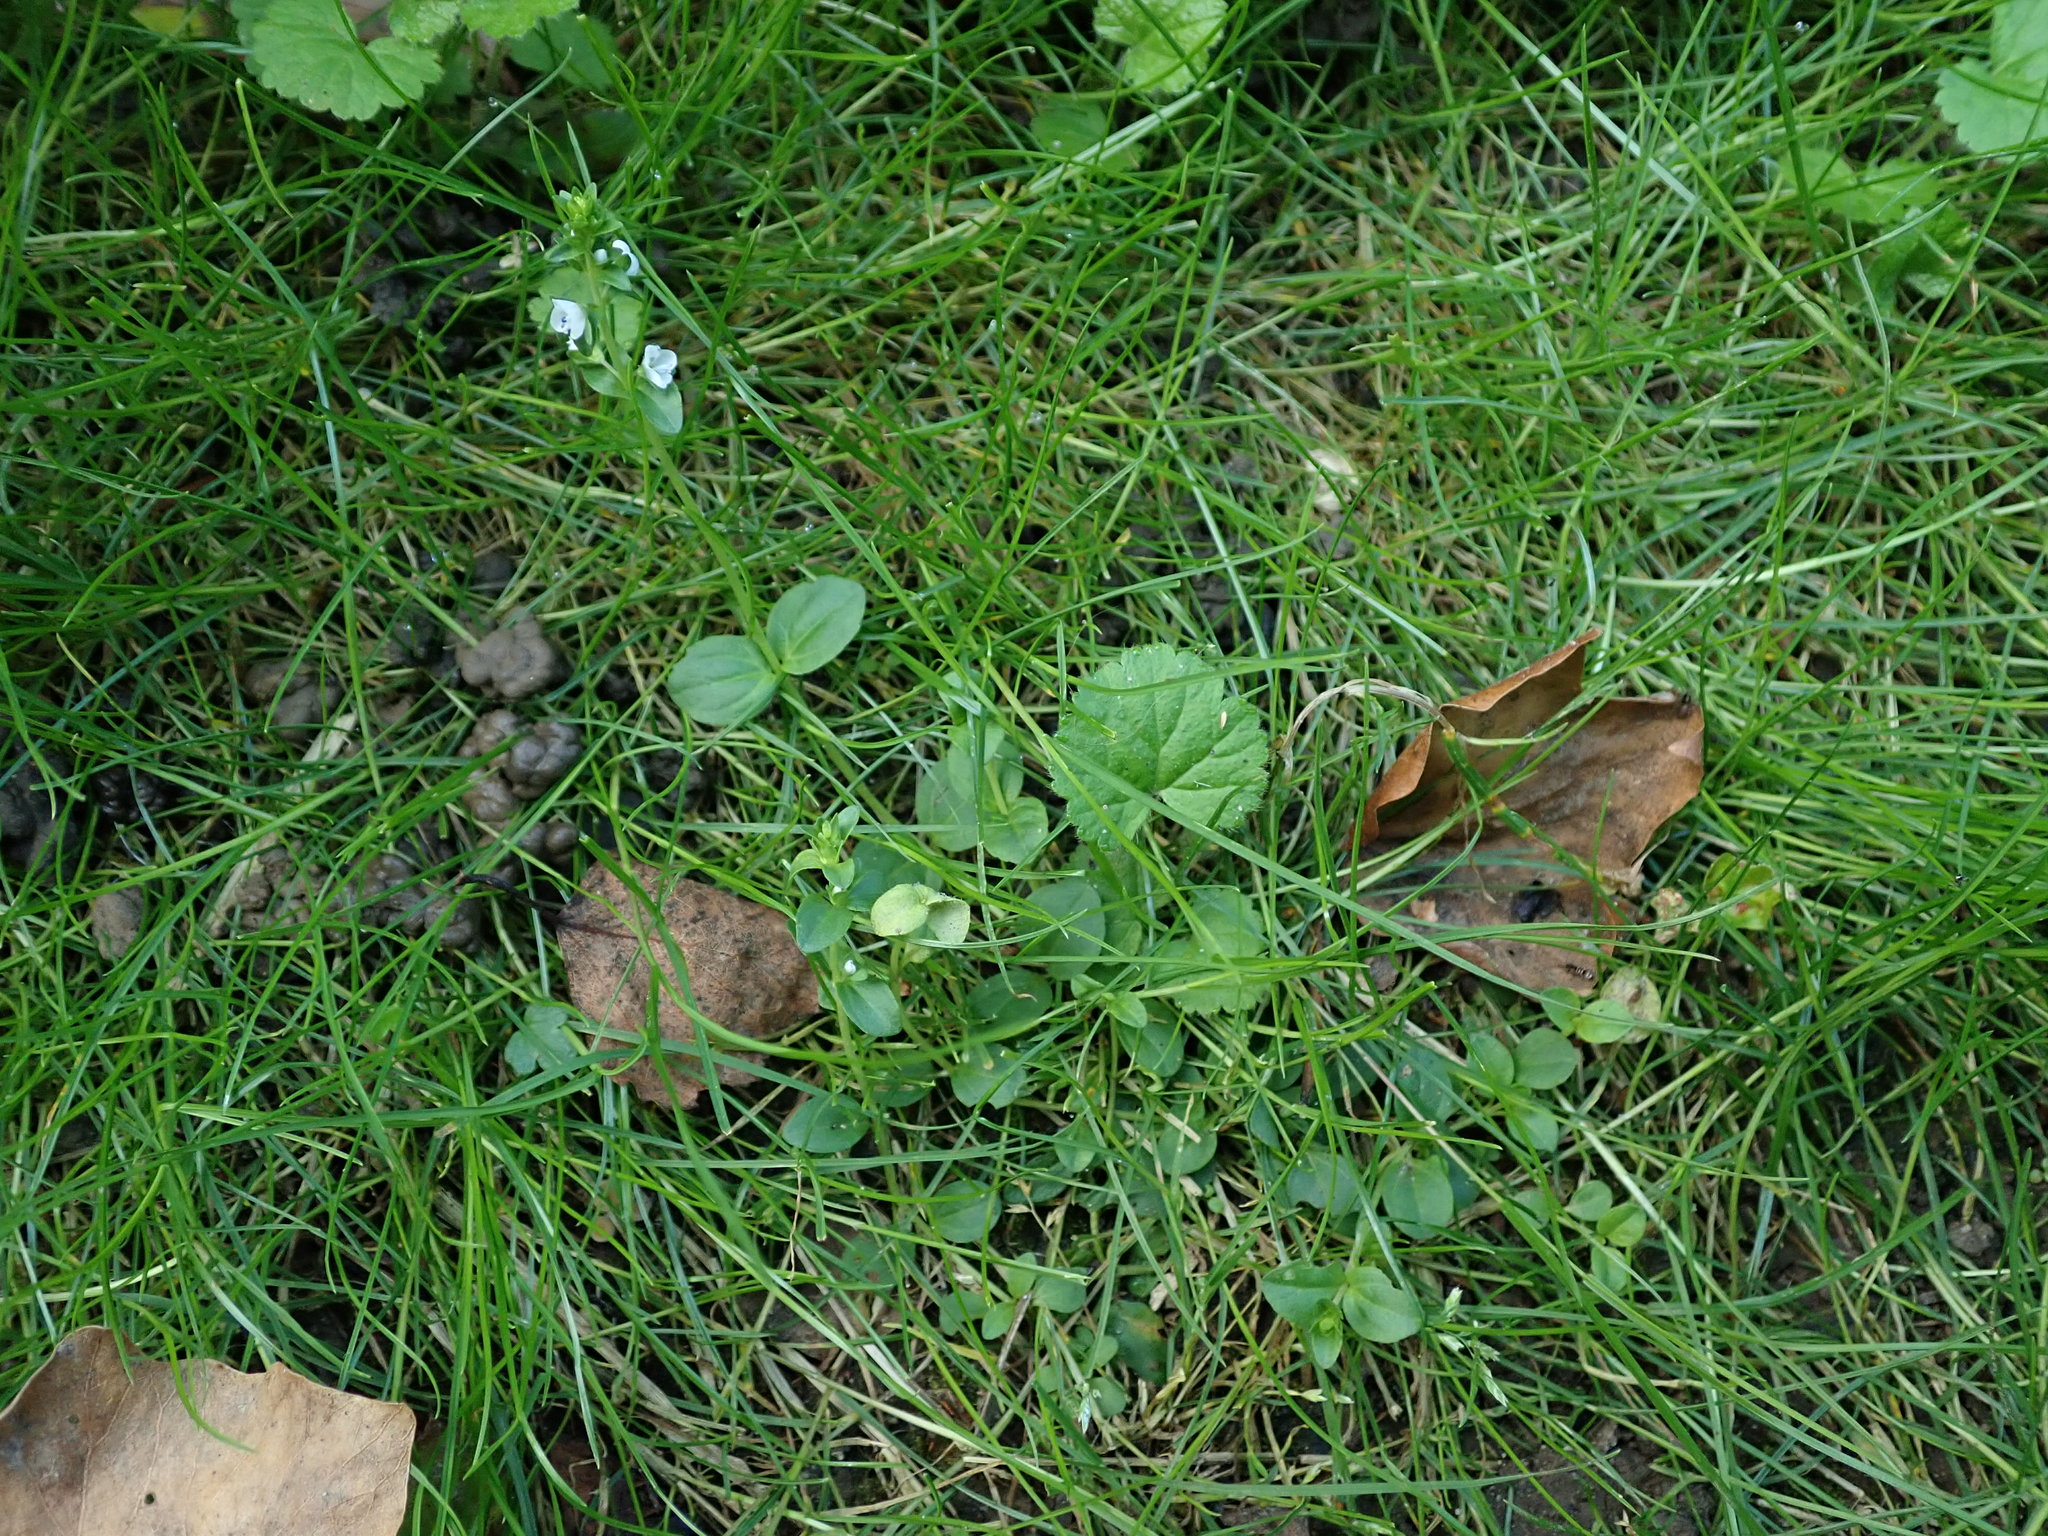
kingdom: Plantae
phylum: Tracheophyta
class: Magnoliopsida
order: Lamiales
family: Plantaginaceae
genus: Veronica
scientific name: Veronica serpyllifolia
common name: Thyme-leaved speedwell
